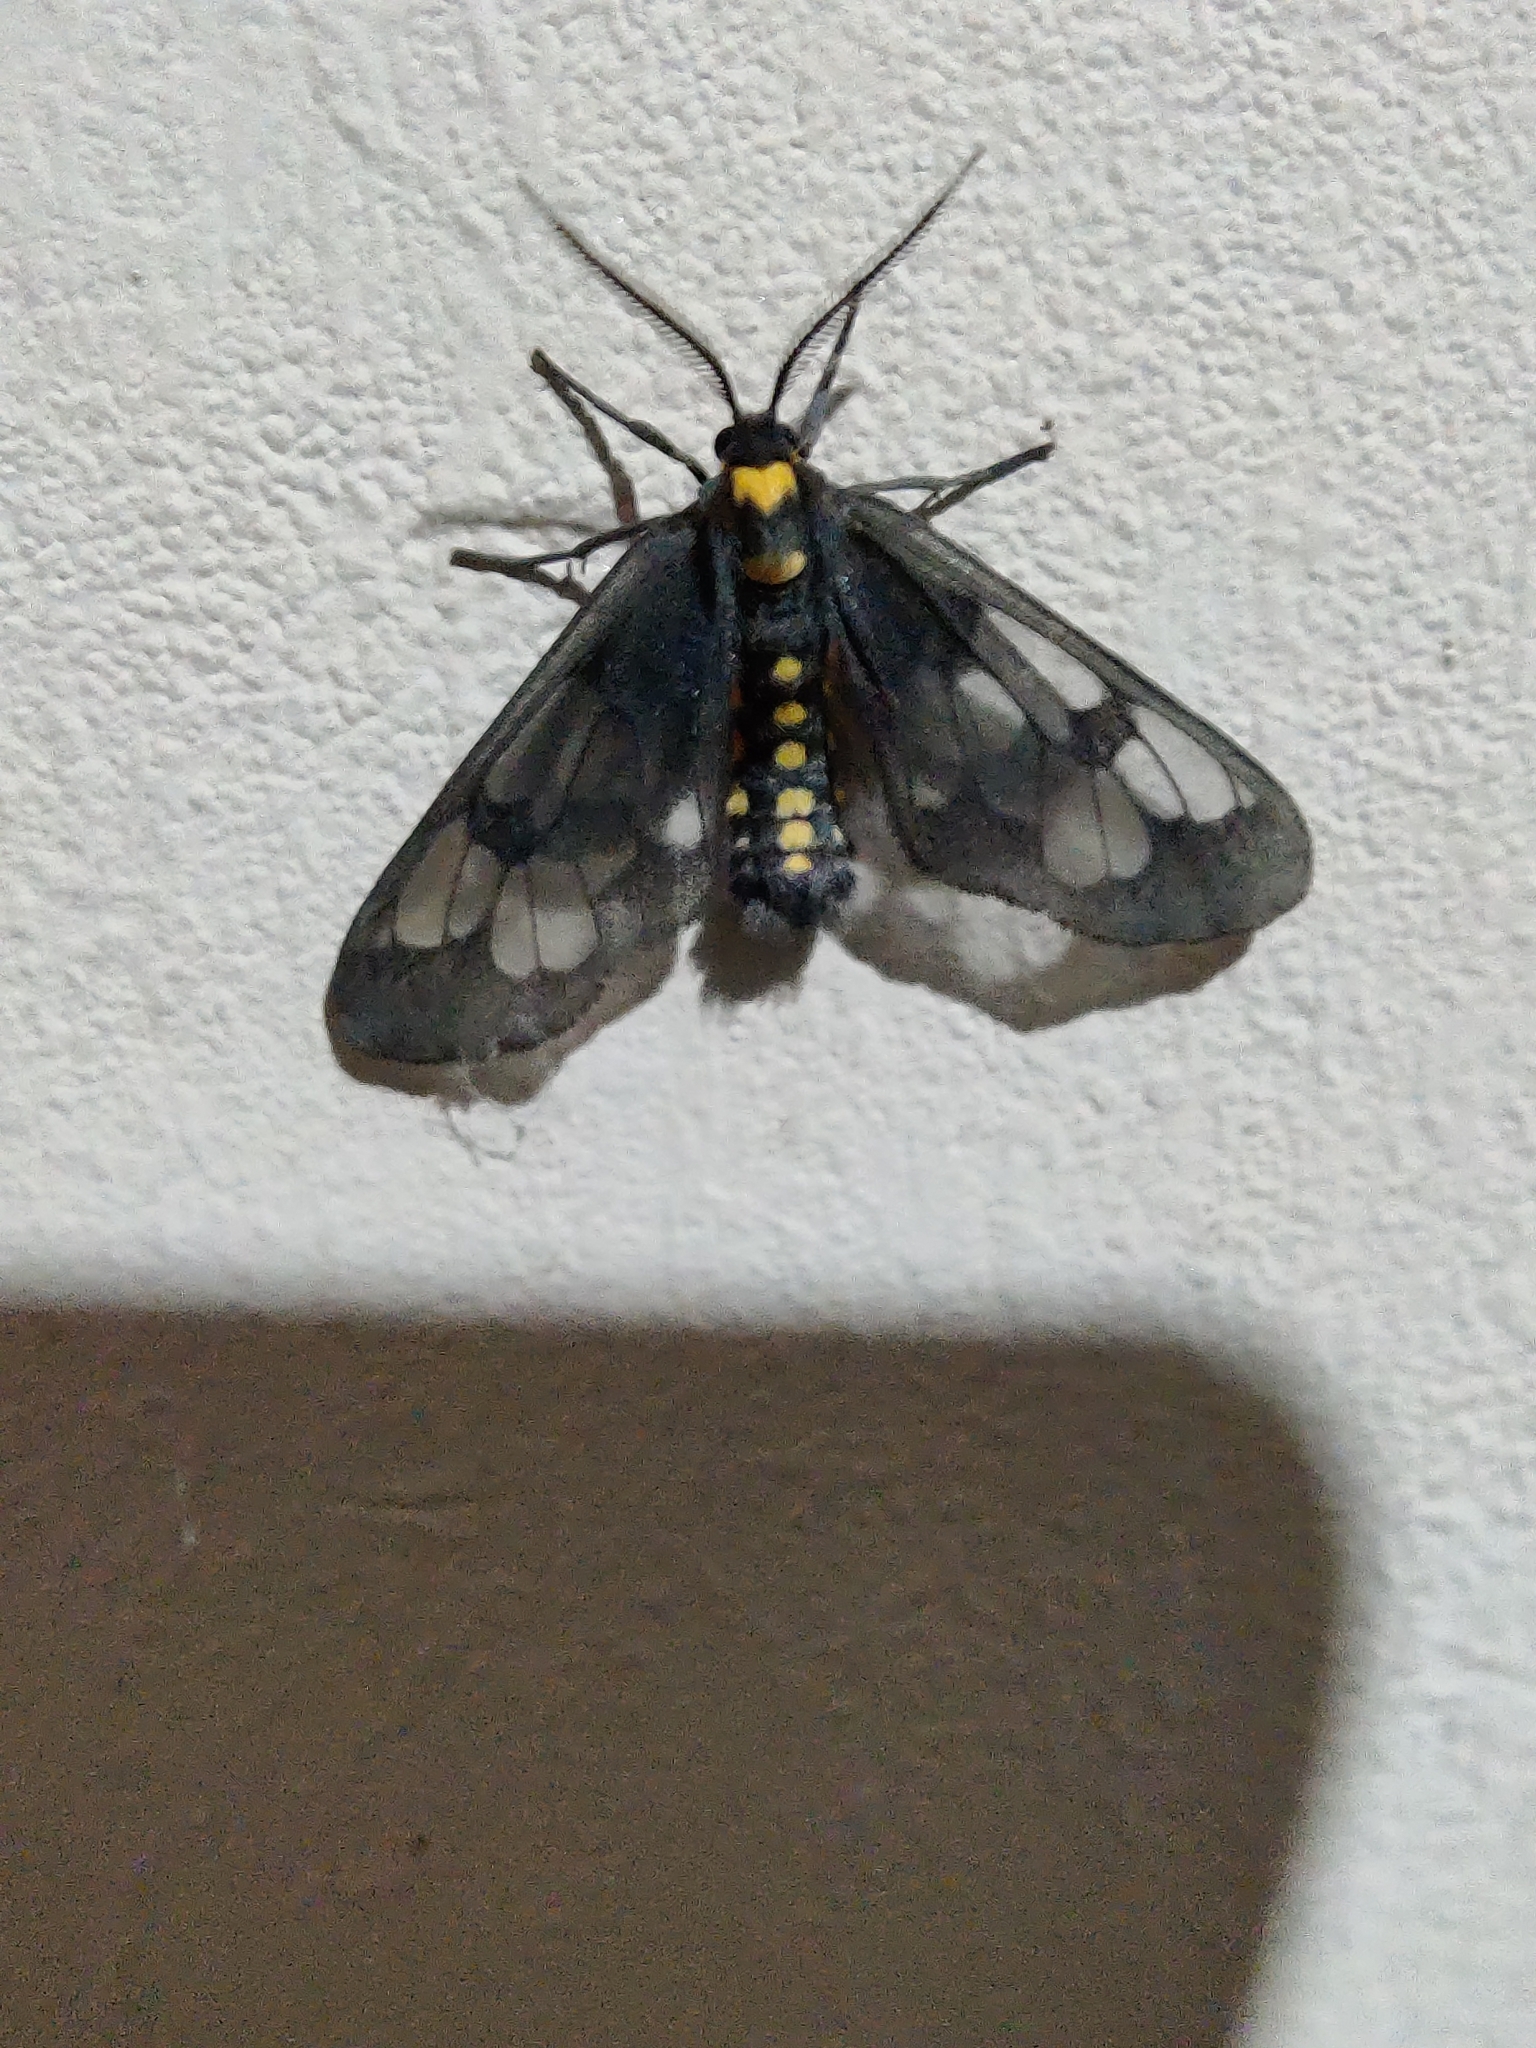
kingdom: Animalia
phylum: Arthropoda
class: Insecta
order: Lepidoptera
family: Erebidae
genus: Eressa
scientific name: Eressa confinis
